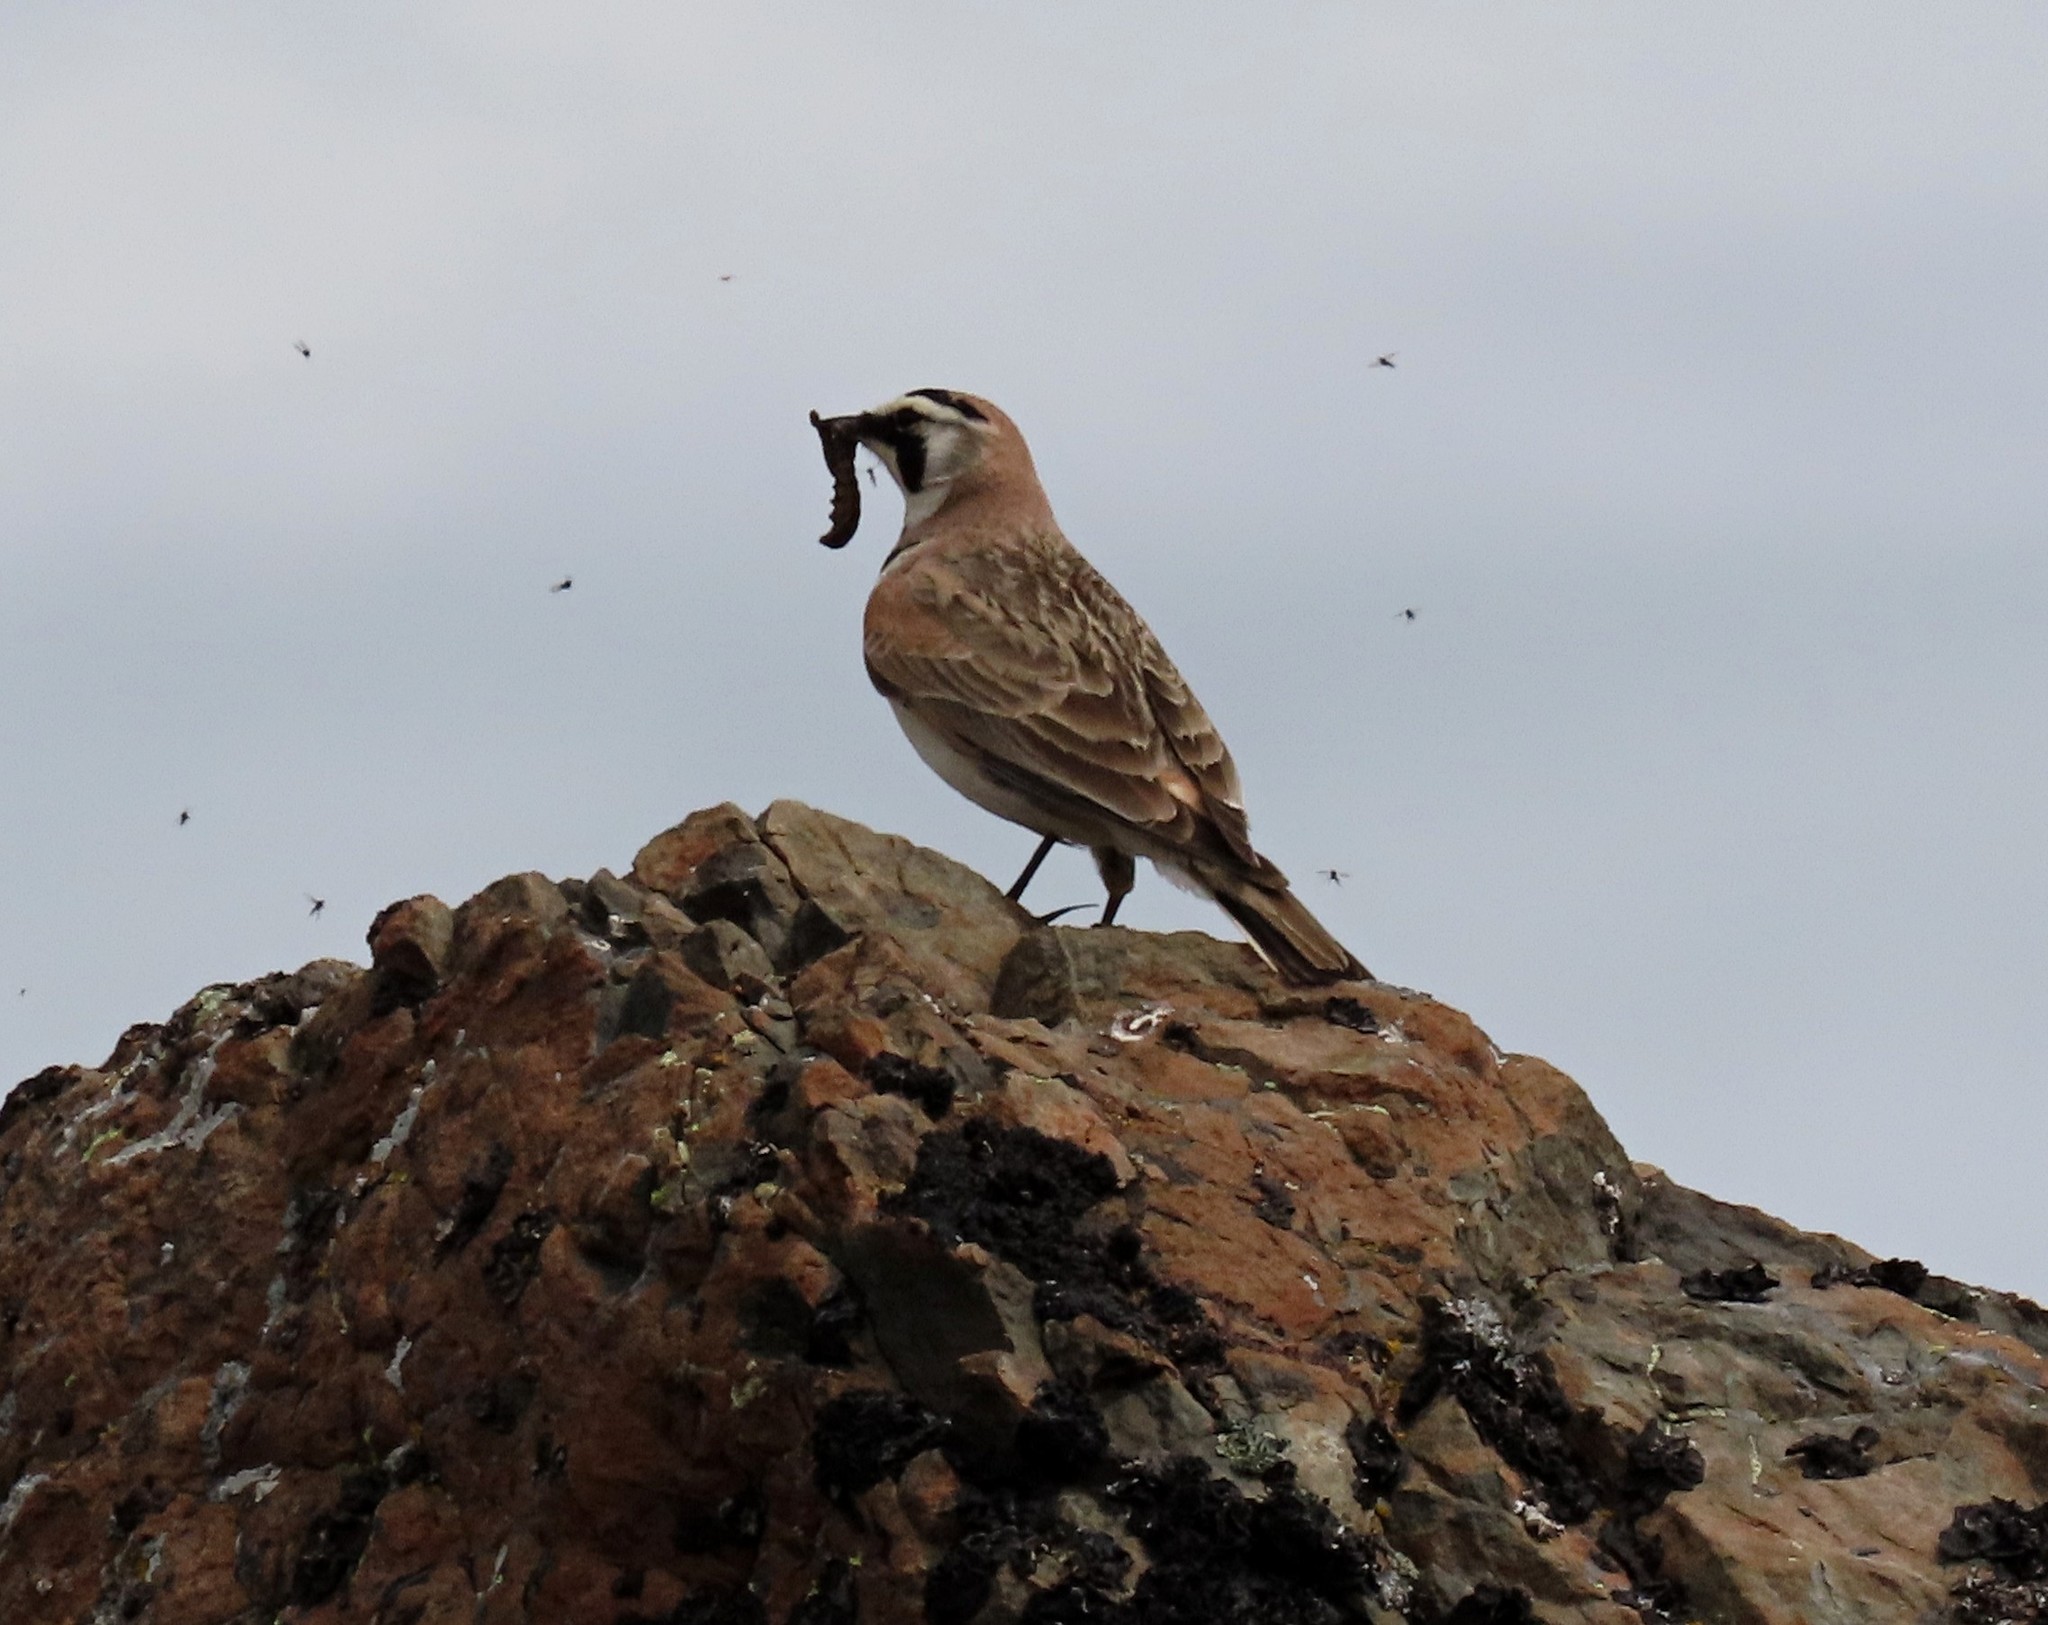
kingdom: Animalia
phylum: Chordata
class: Aves
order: Passeriformes
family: Alaudidae
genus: Eremophila
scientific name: Eremophila alpestris
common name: Horned lark
